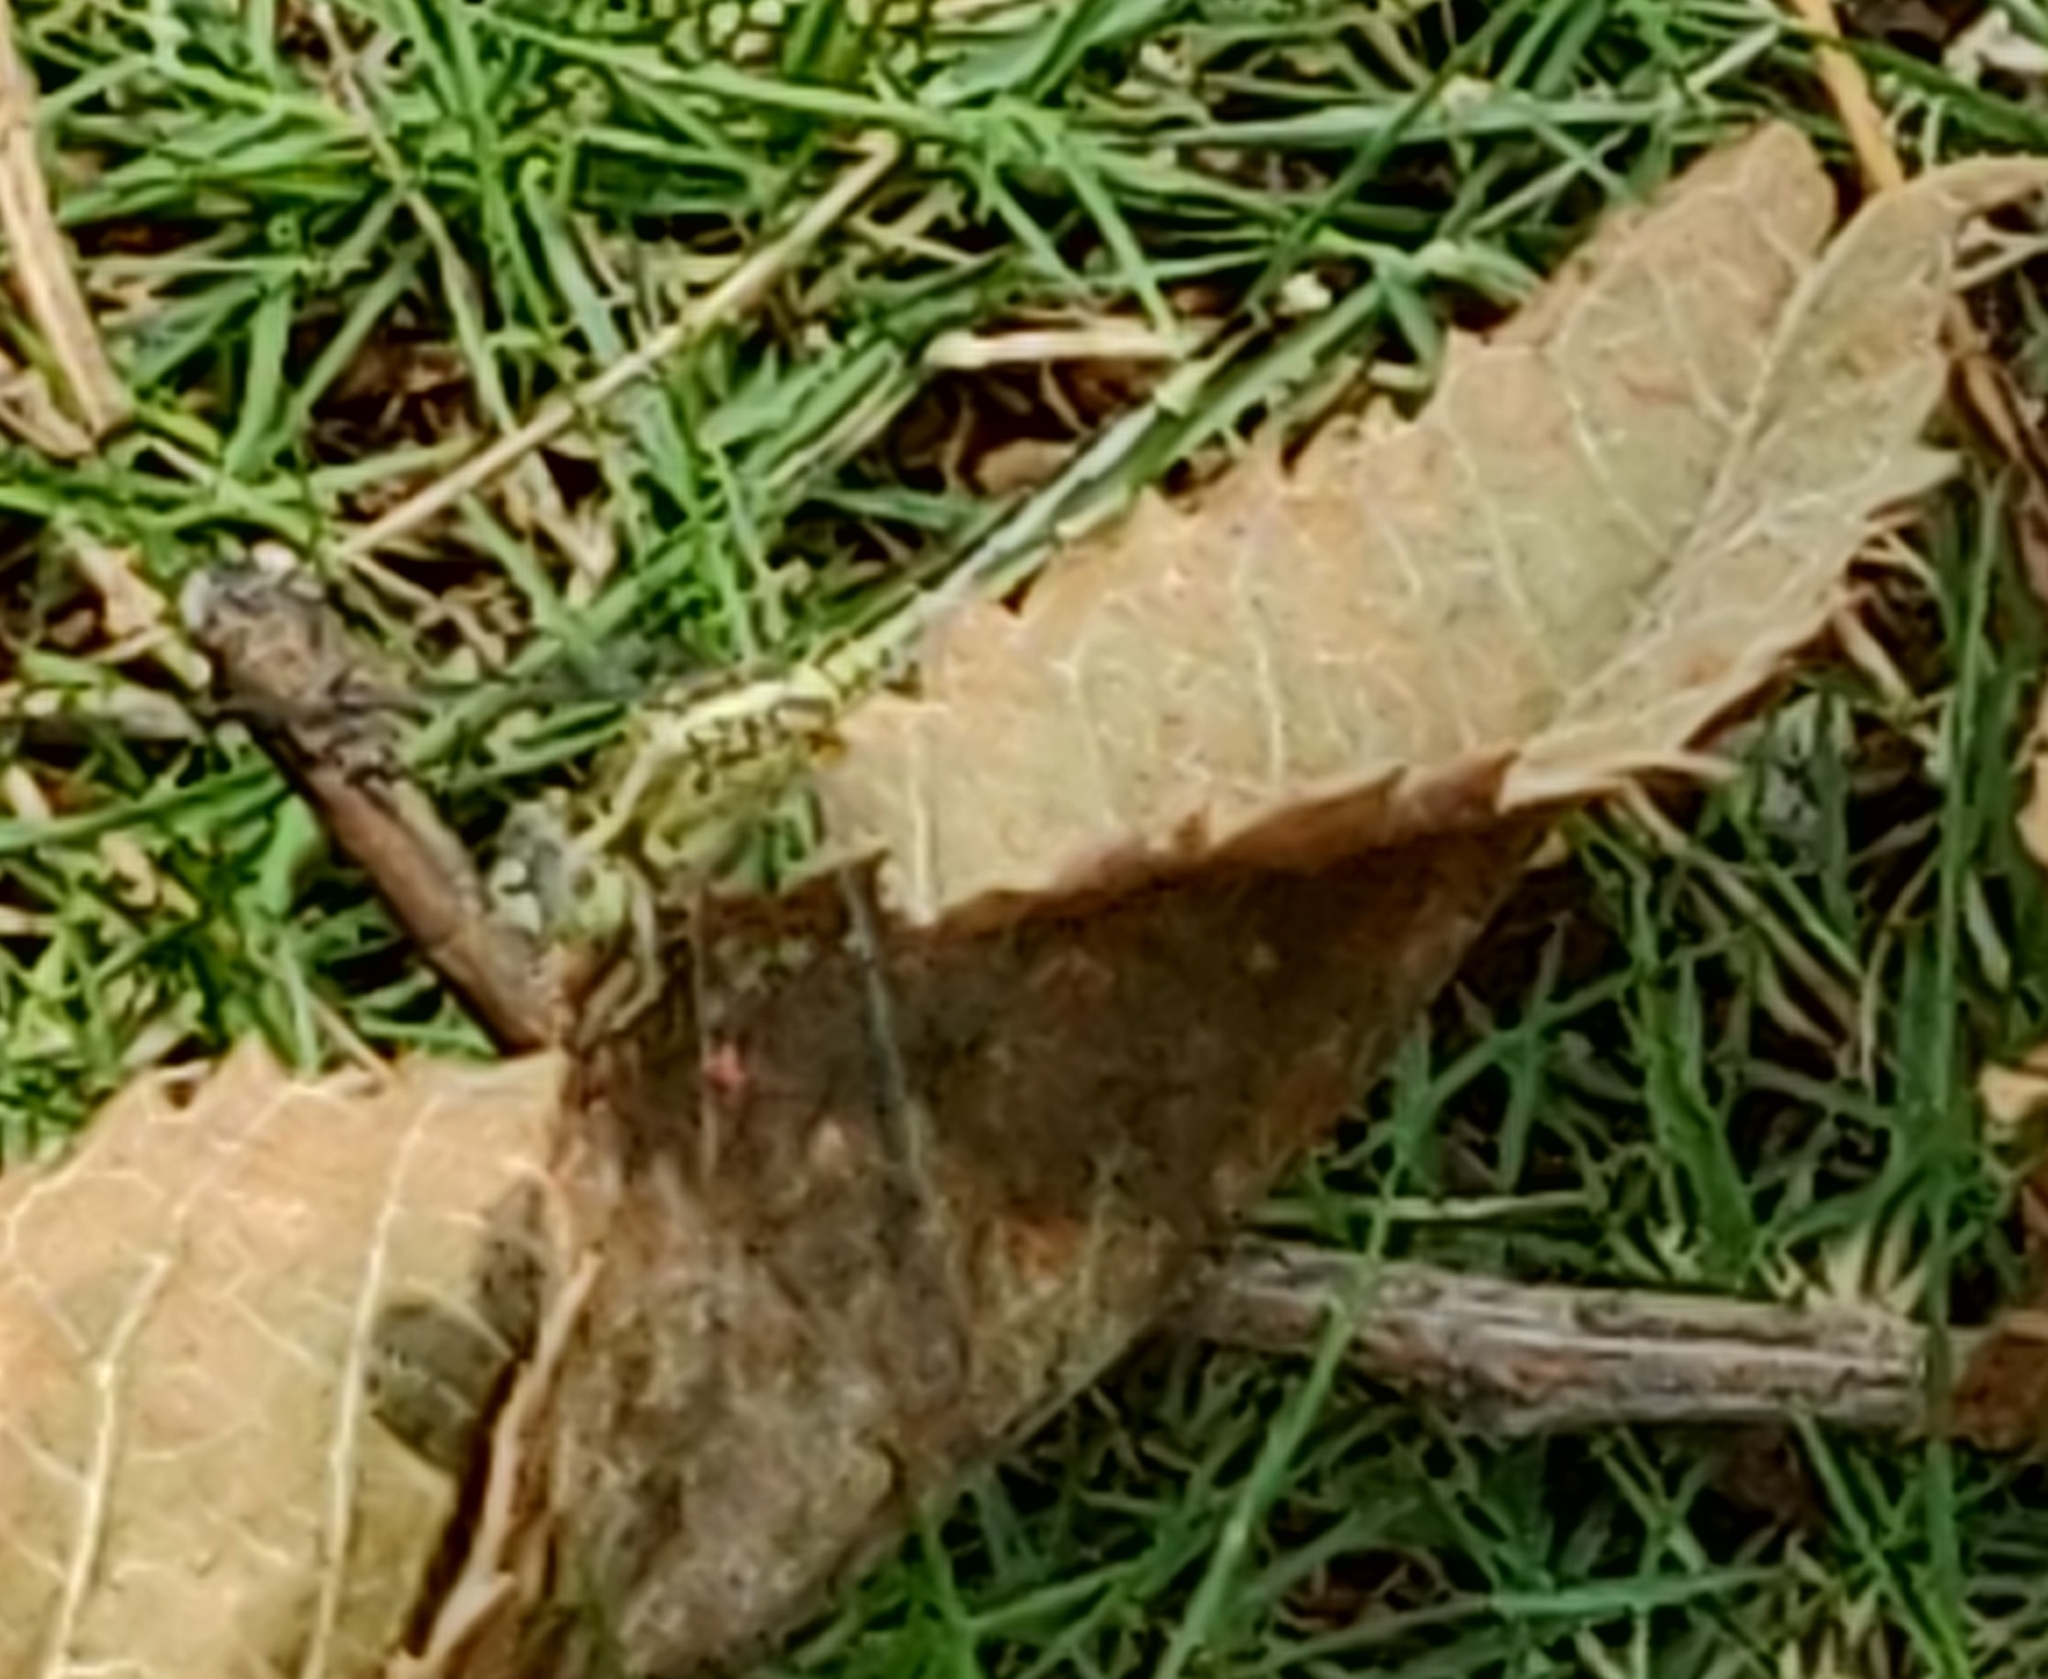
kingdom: Animalia
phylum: Arthropoda
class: Insecta
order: Odonata
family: Libellulidae
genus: Diplacodes
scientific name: Diplacodes trivialis
